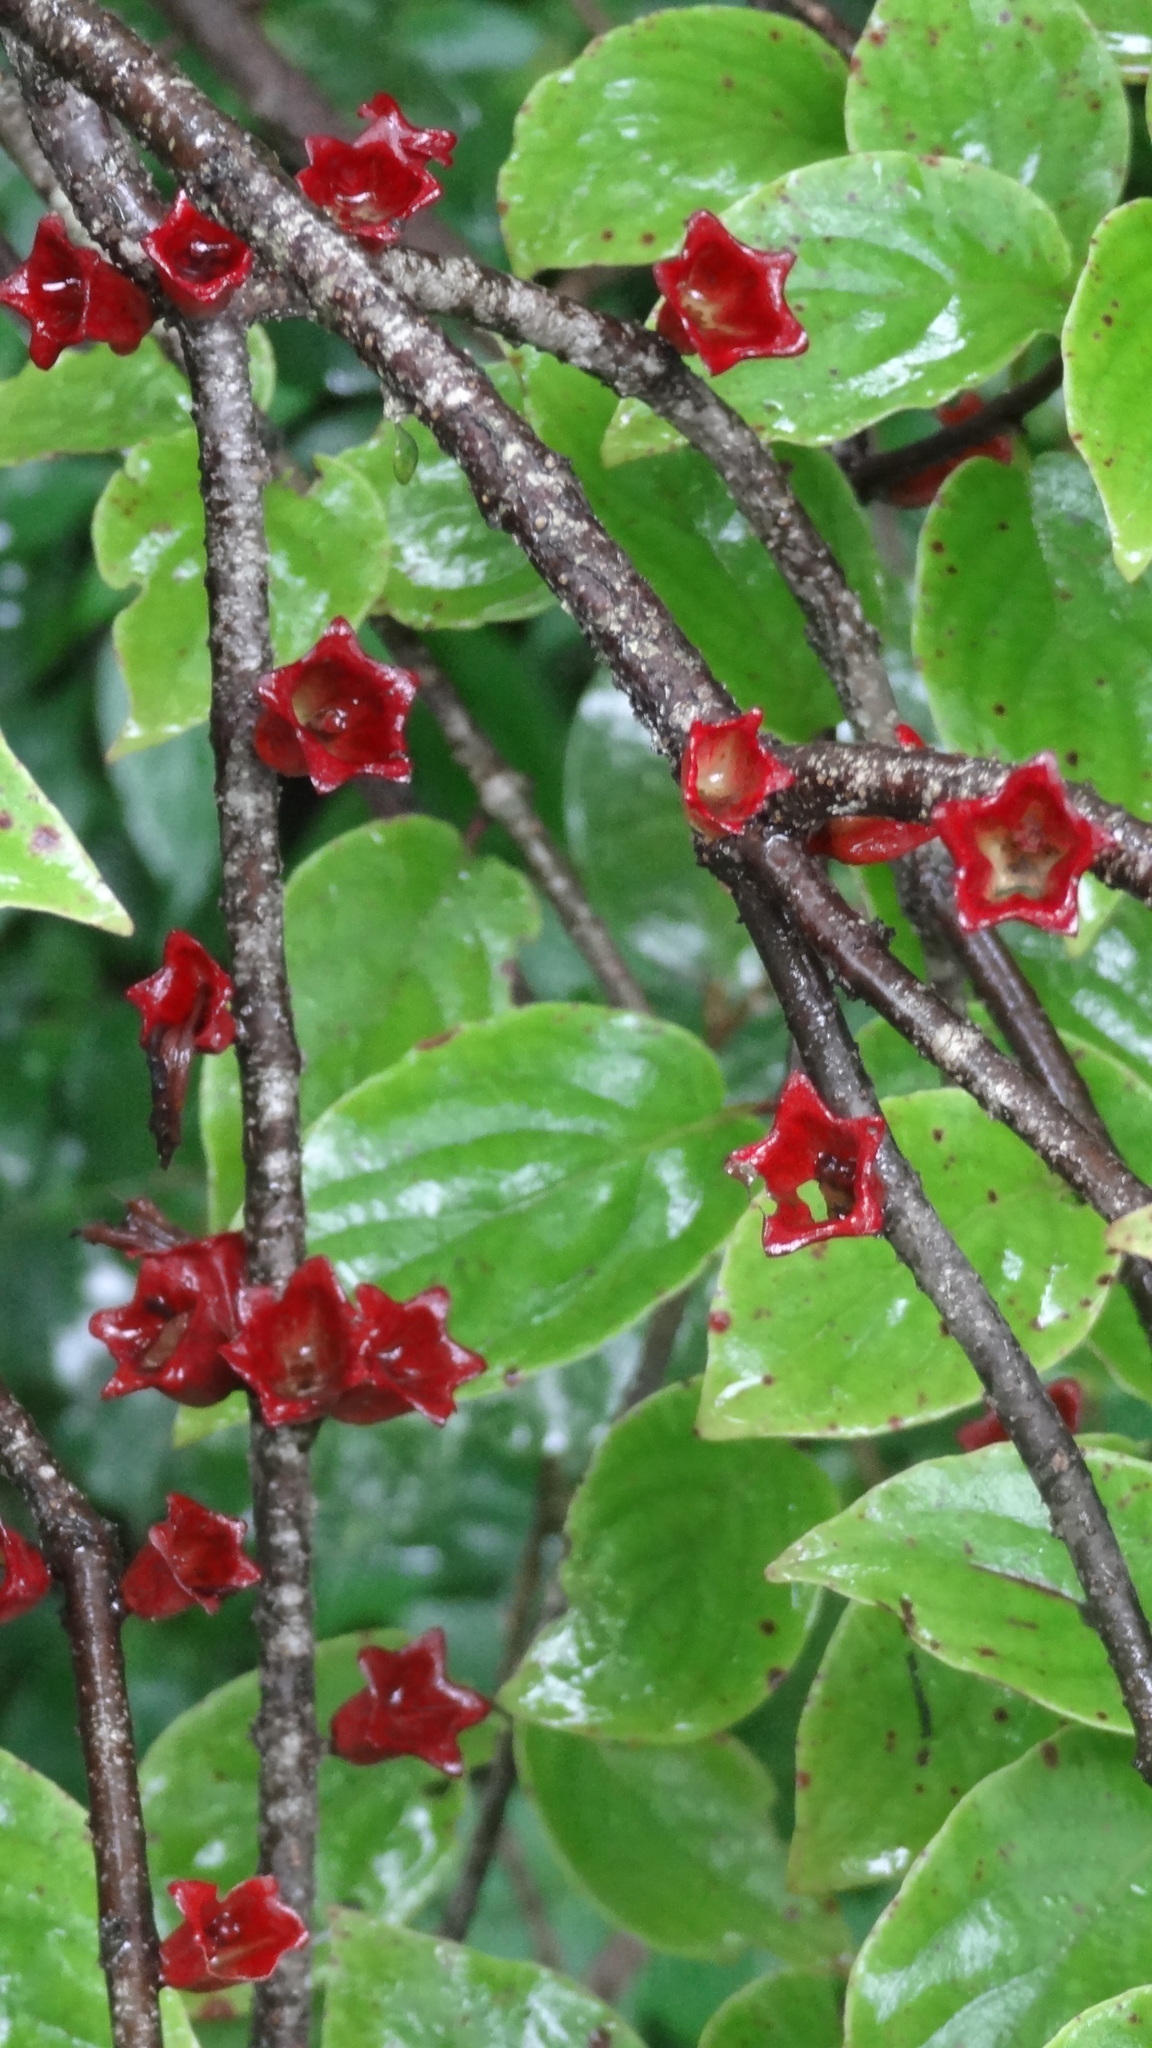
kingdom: Plantae
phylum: Tracheophyta
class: Magnoliopsida
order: Santalales
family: Loranthaceae
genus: Tolypanthus
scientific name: Tolypanthus lagenifer
